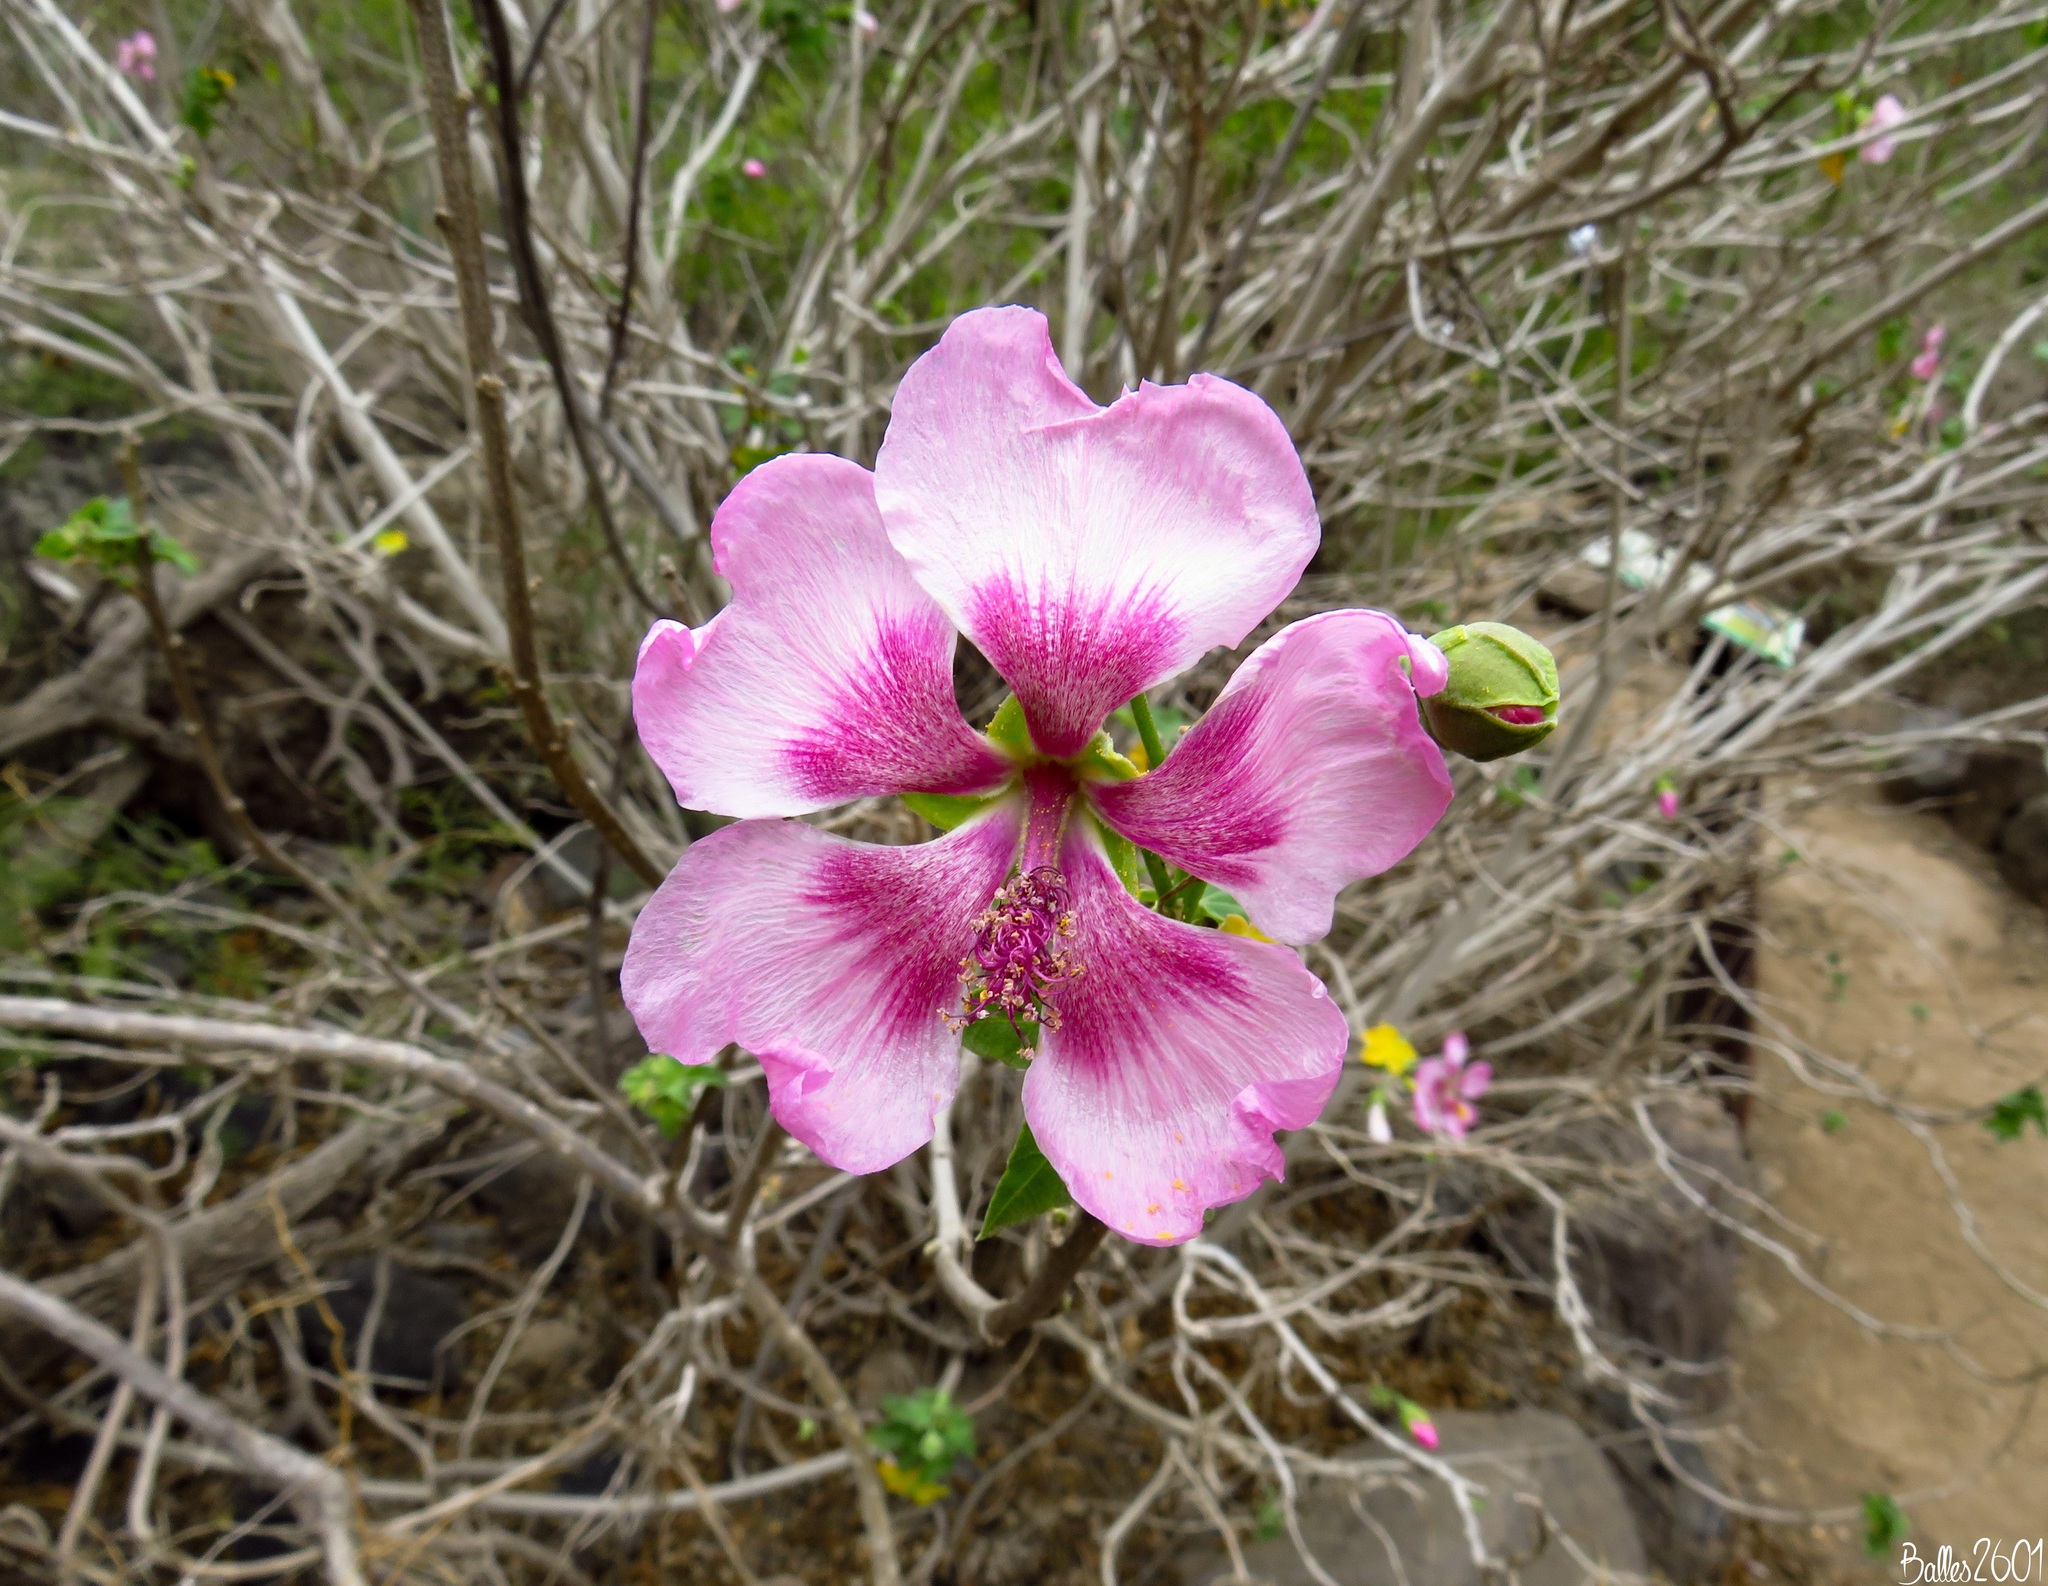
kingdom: Plantae
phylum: Tracheophyta
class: Magnoliopsida
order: Malvales
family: Malvaceae
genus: Malva
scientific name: Malva acerifolia
